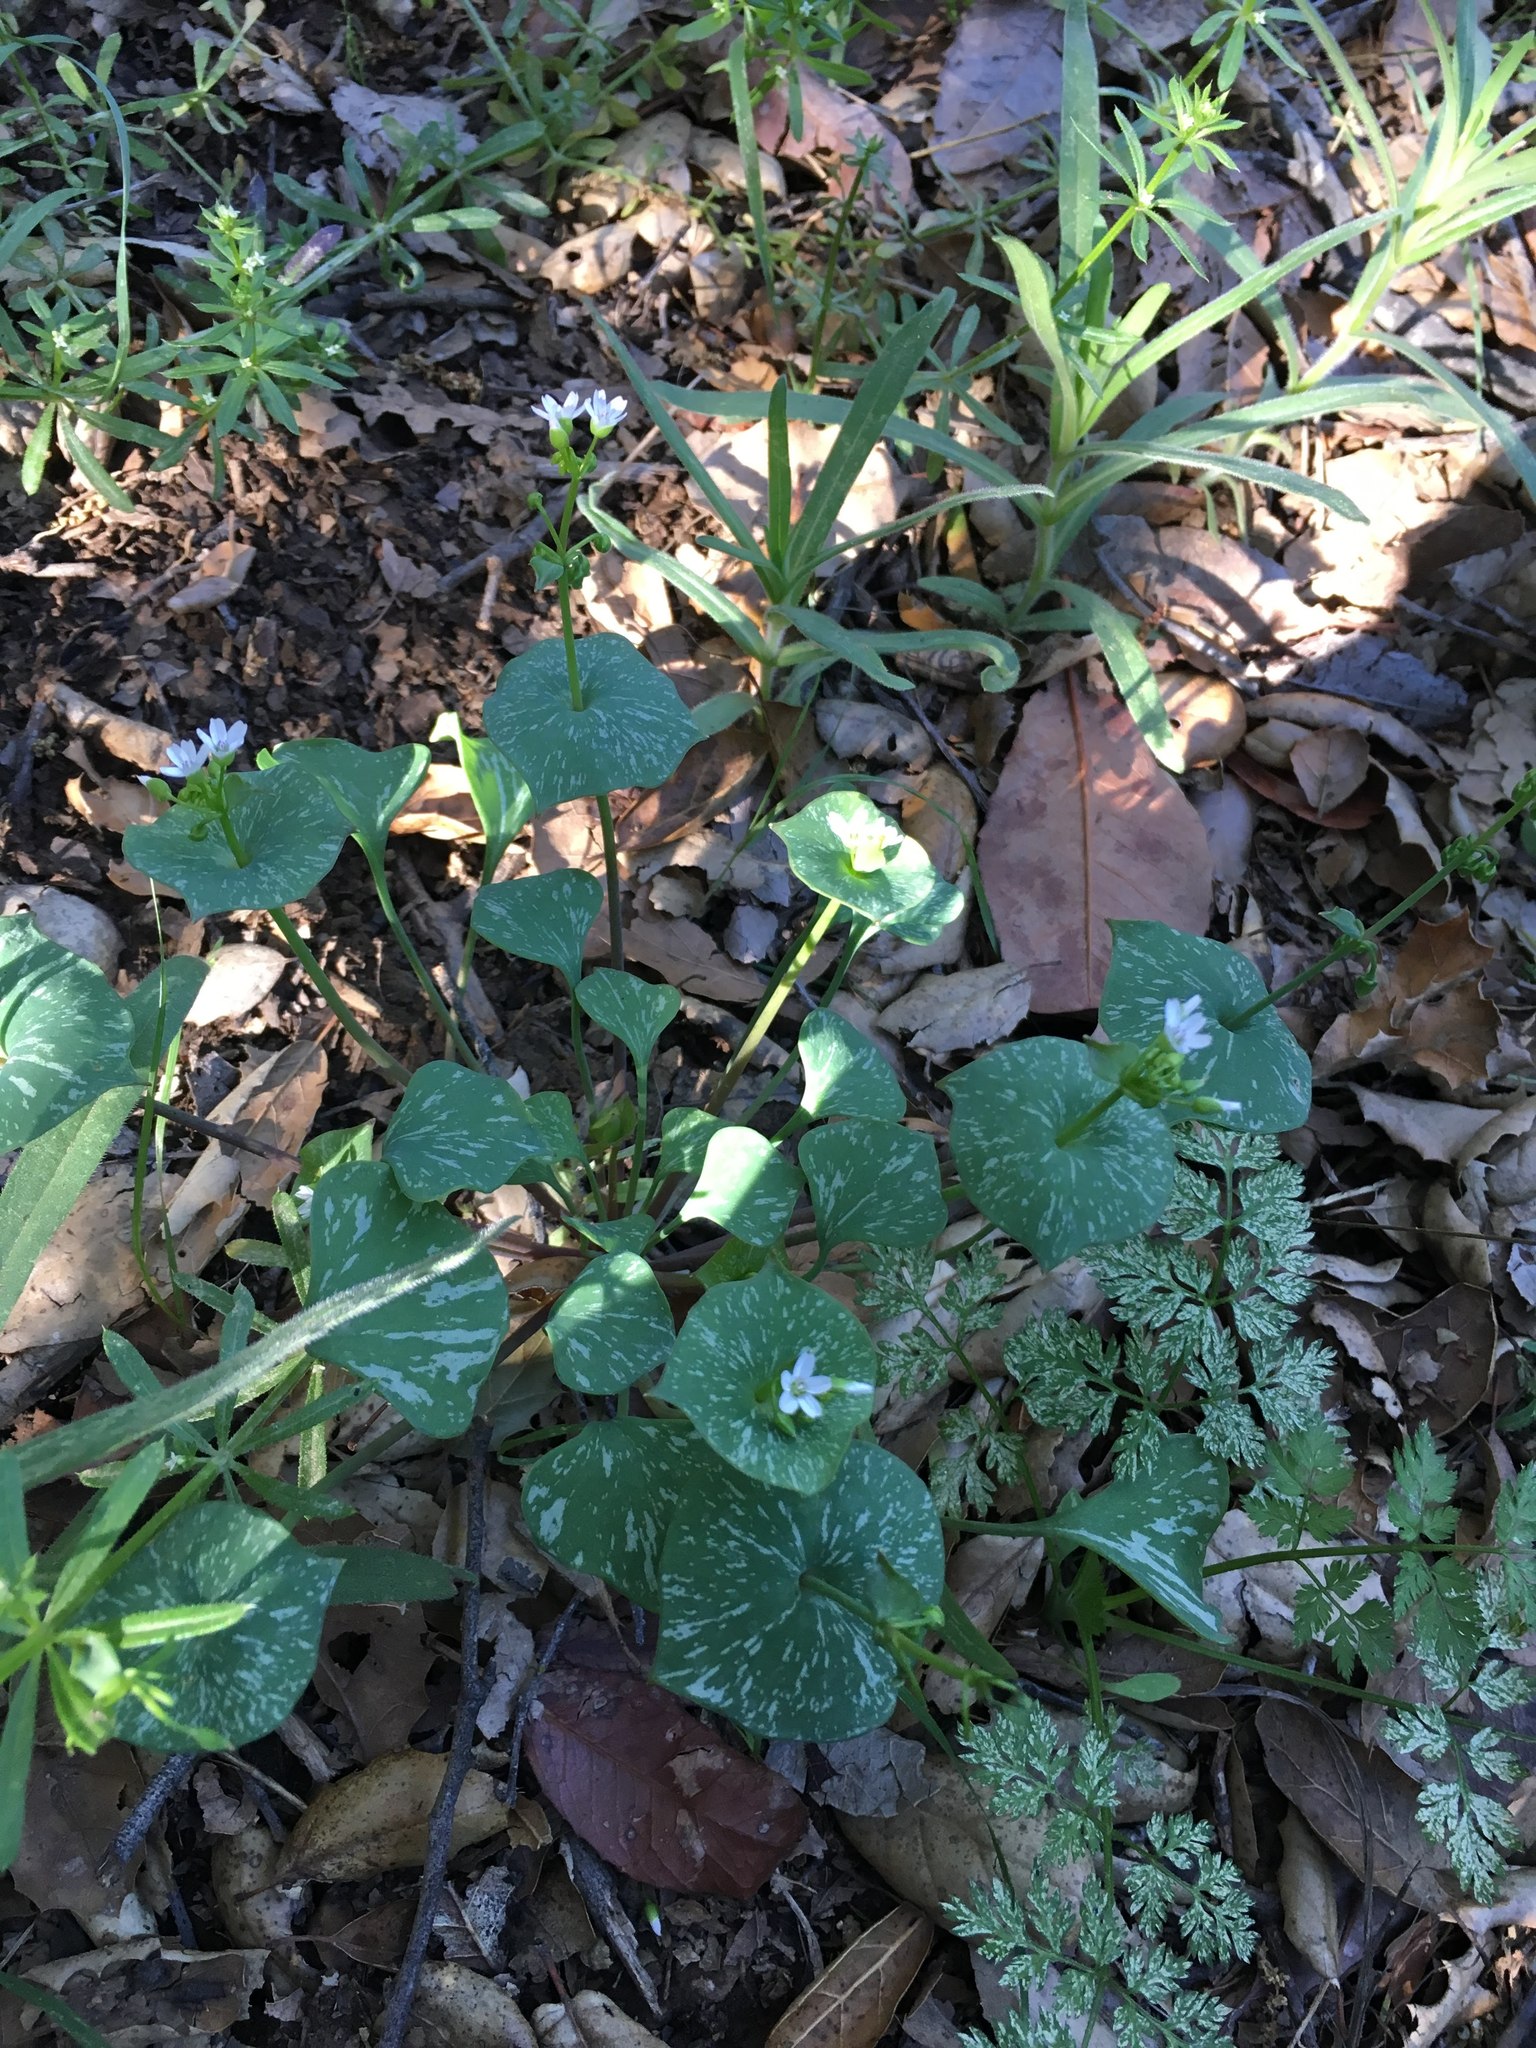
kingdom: Plantae
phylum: Tracheophyta
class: Magnoliopsida
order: Caryophyllales
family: Montiaceae
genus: Claytonia
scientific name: Claytonia perfoliata
